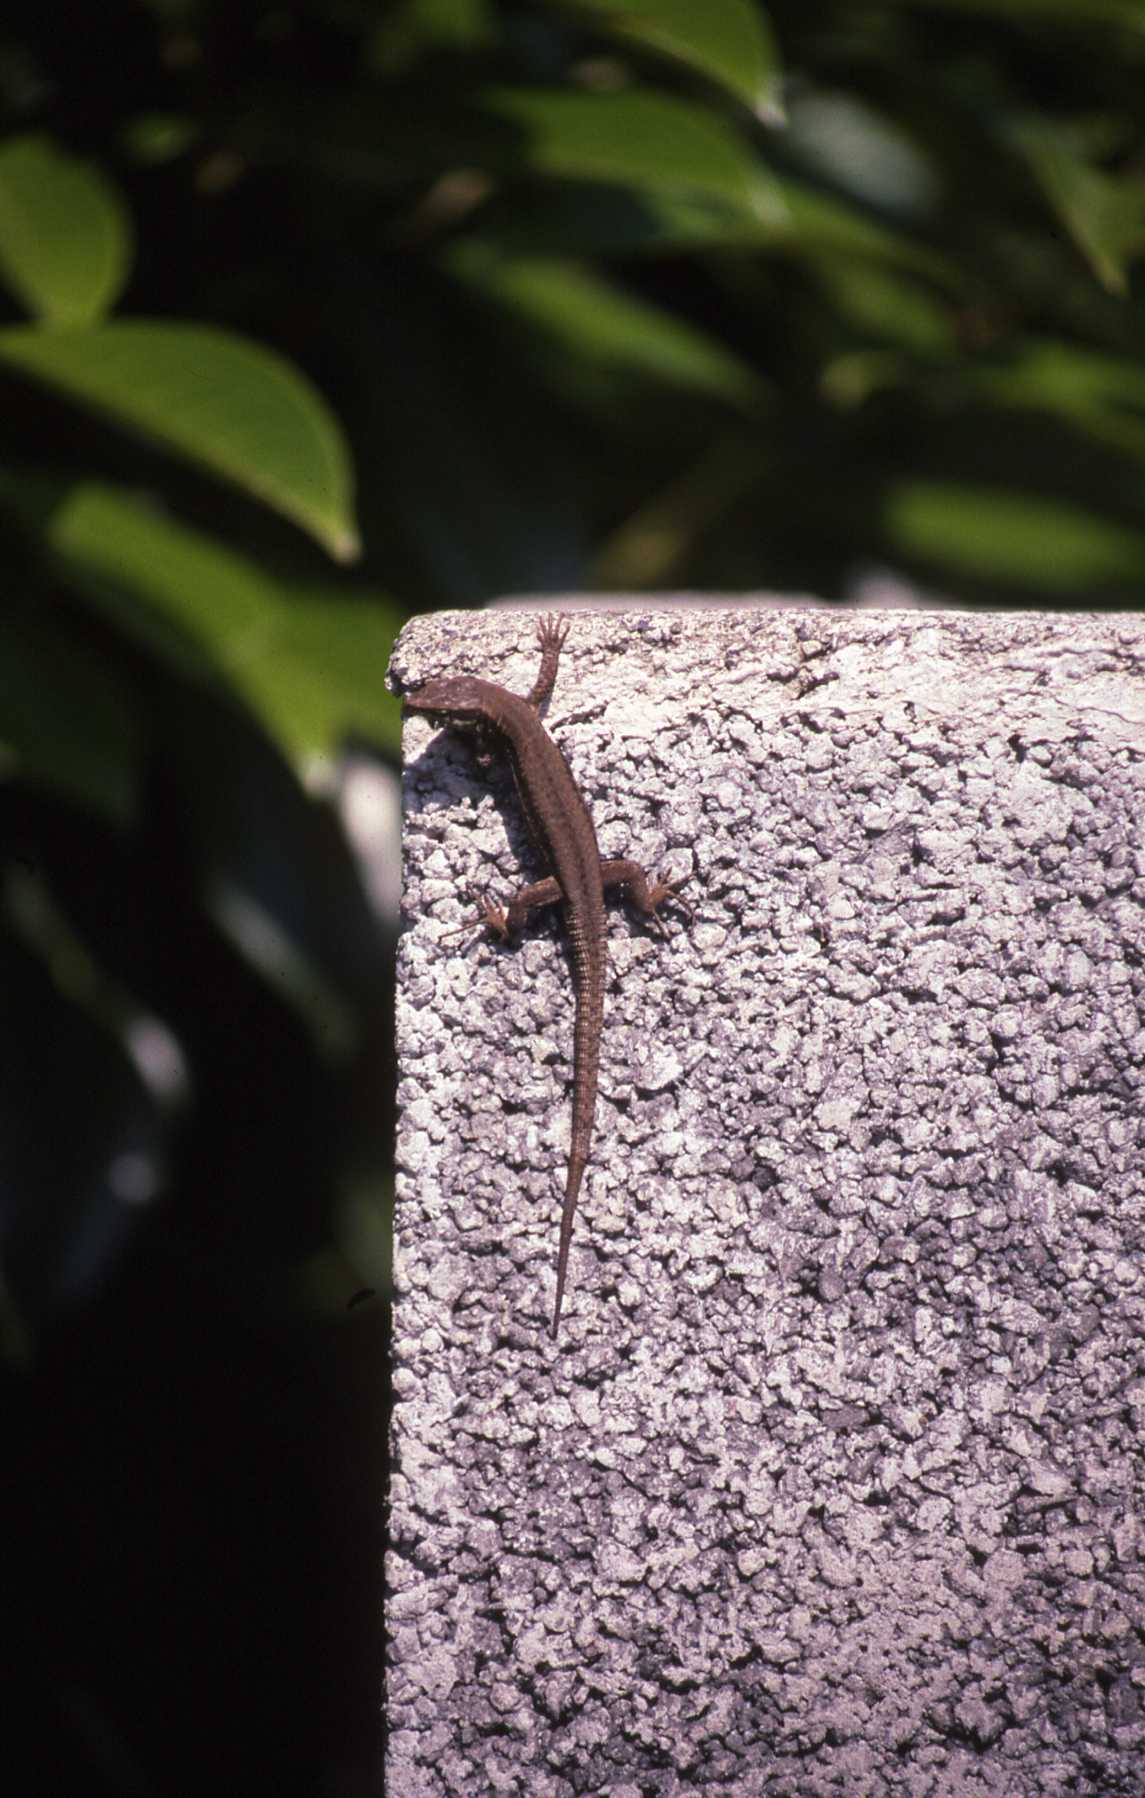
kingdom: Animalia
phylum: Chordata
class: Squamata
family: Lacertidae
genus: Podarcis
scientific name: Podarcis muralis
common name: Common wall lizard
